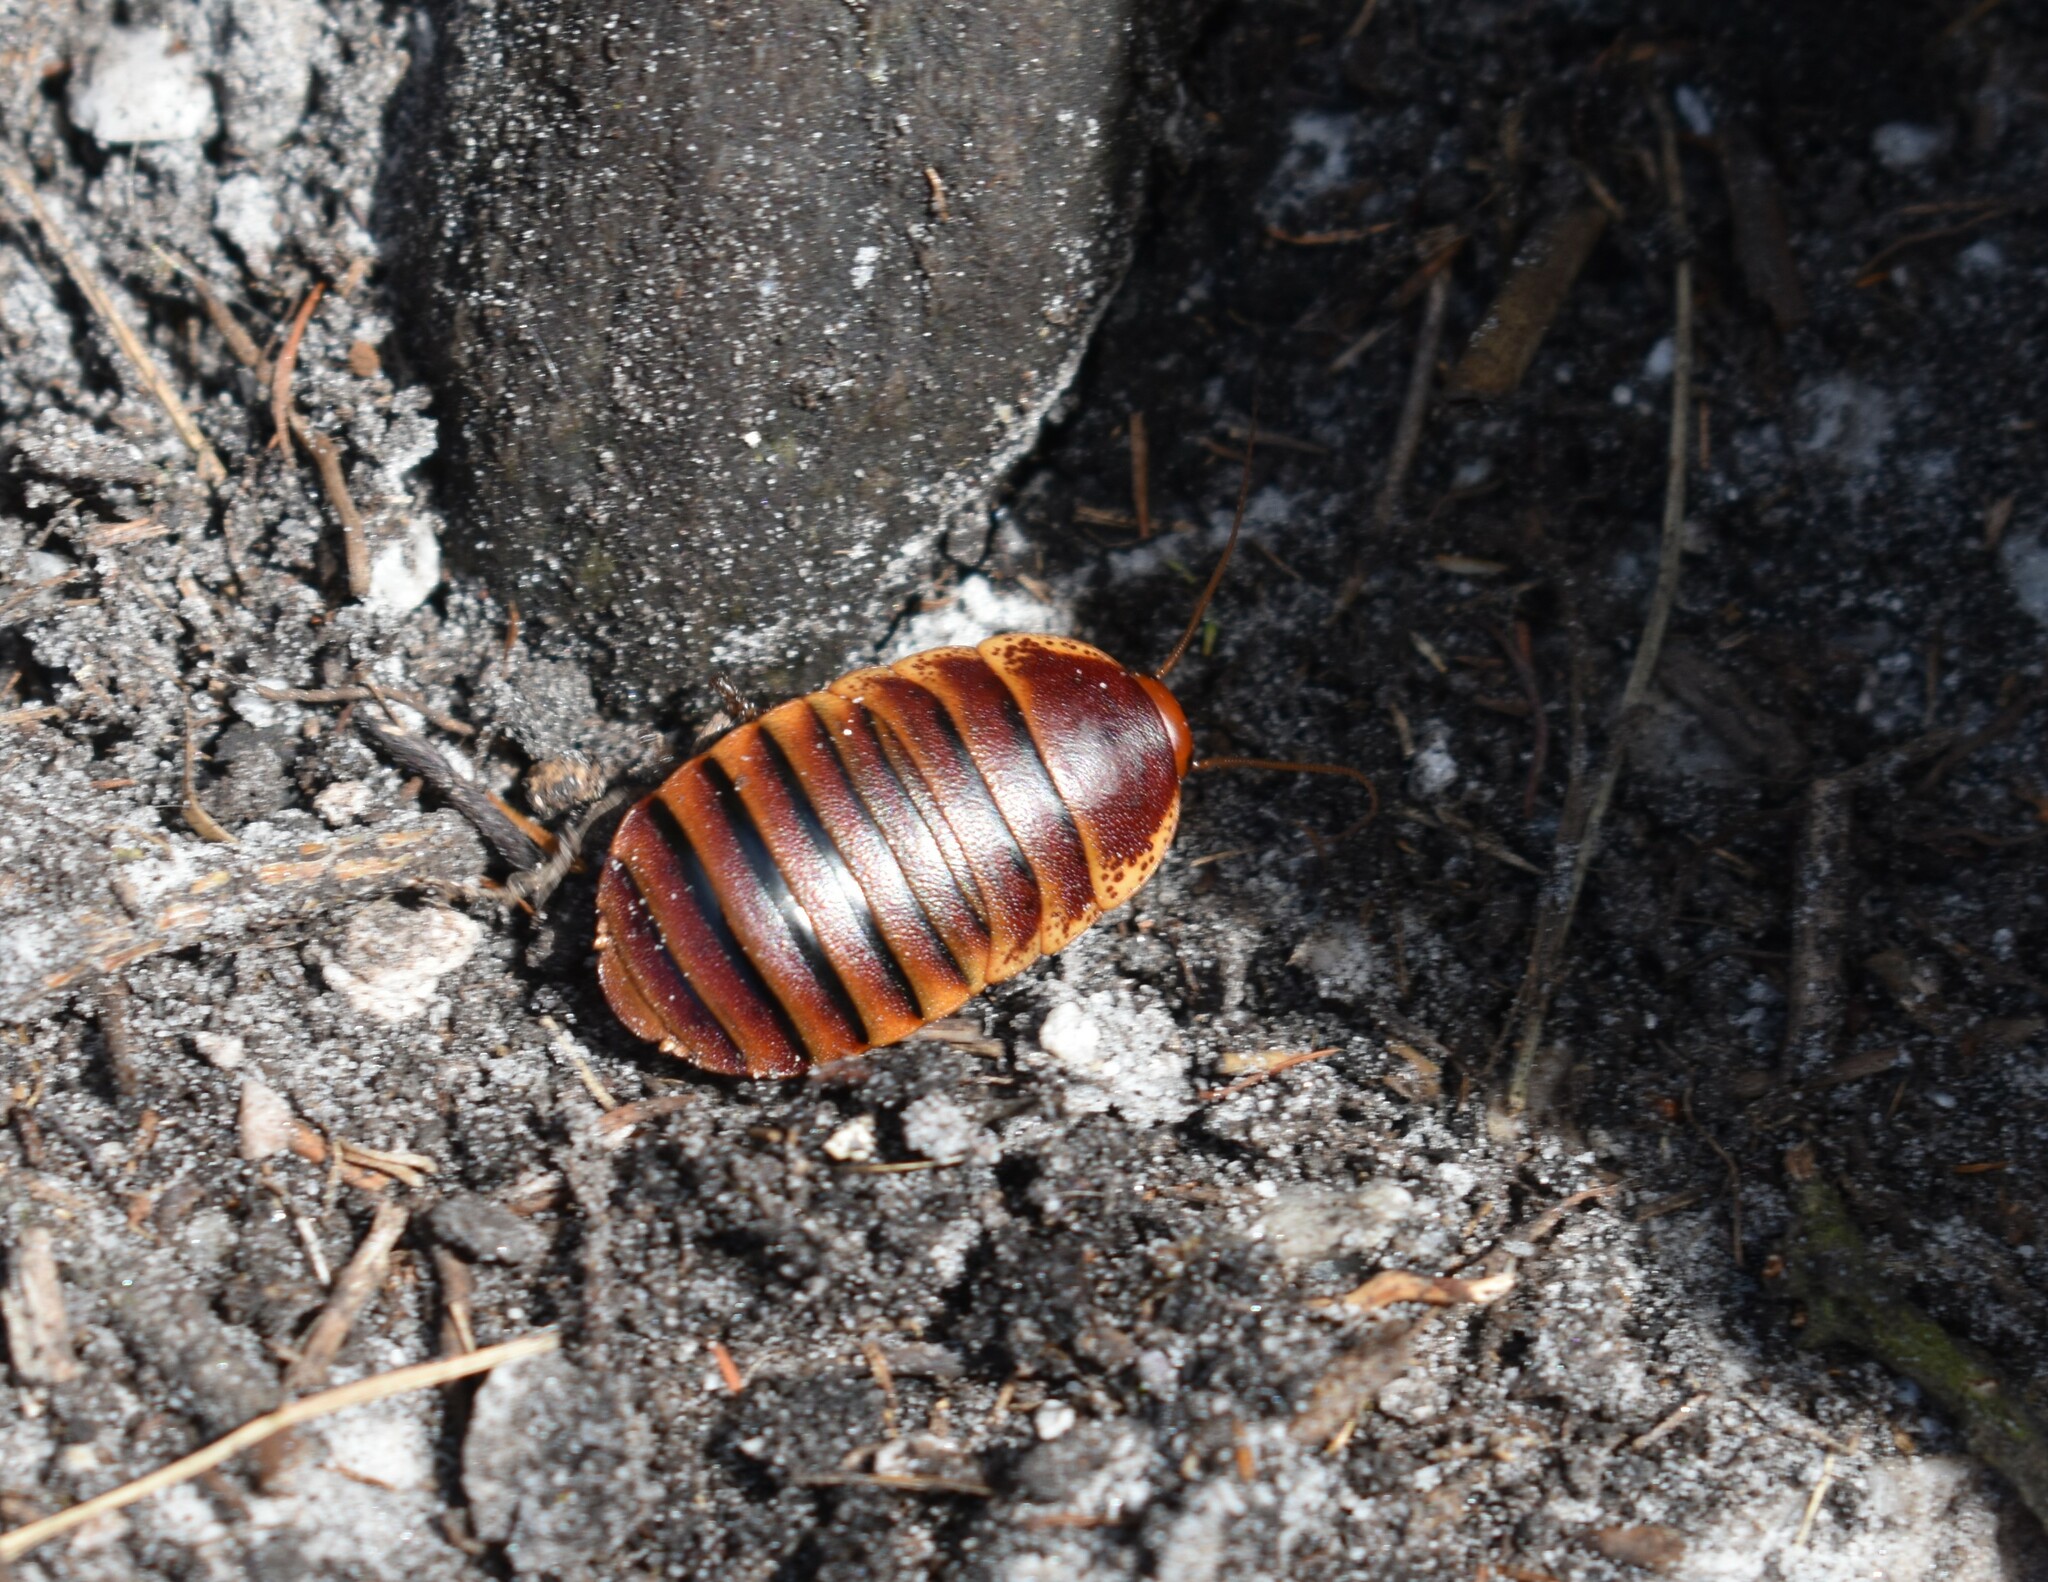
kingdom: Animalia
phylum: Arthropoda
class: Insecta
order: Blattodea
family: Blaberidae
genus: Aptera
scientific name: Aptera fusca
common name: Cape mountain cockroach
